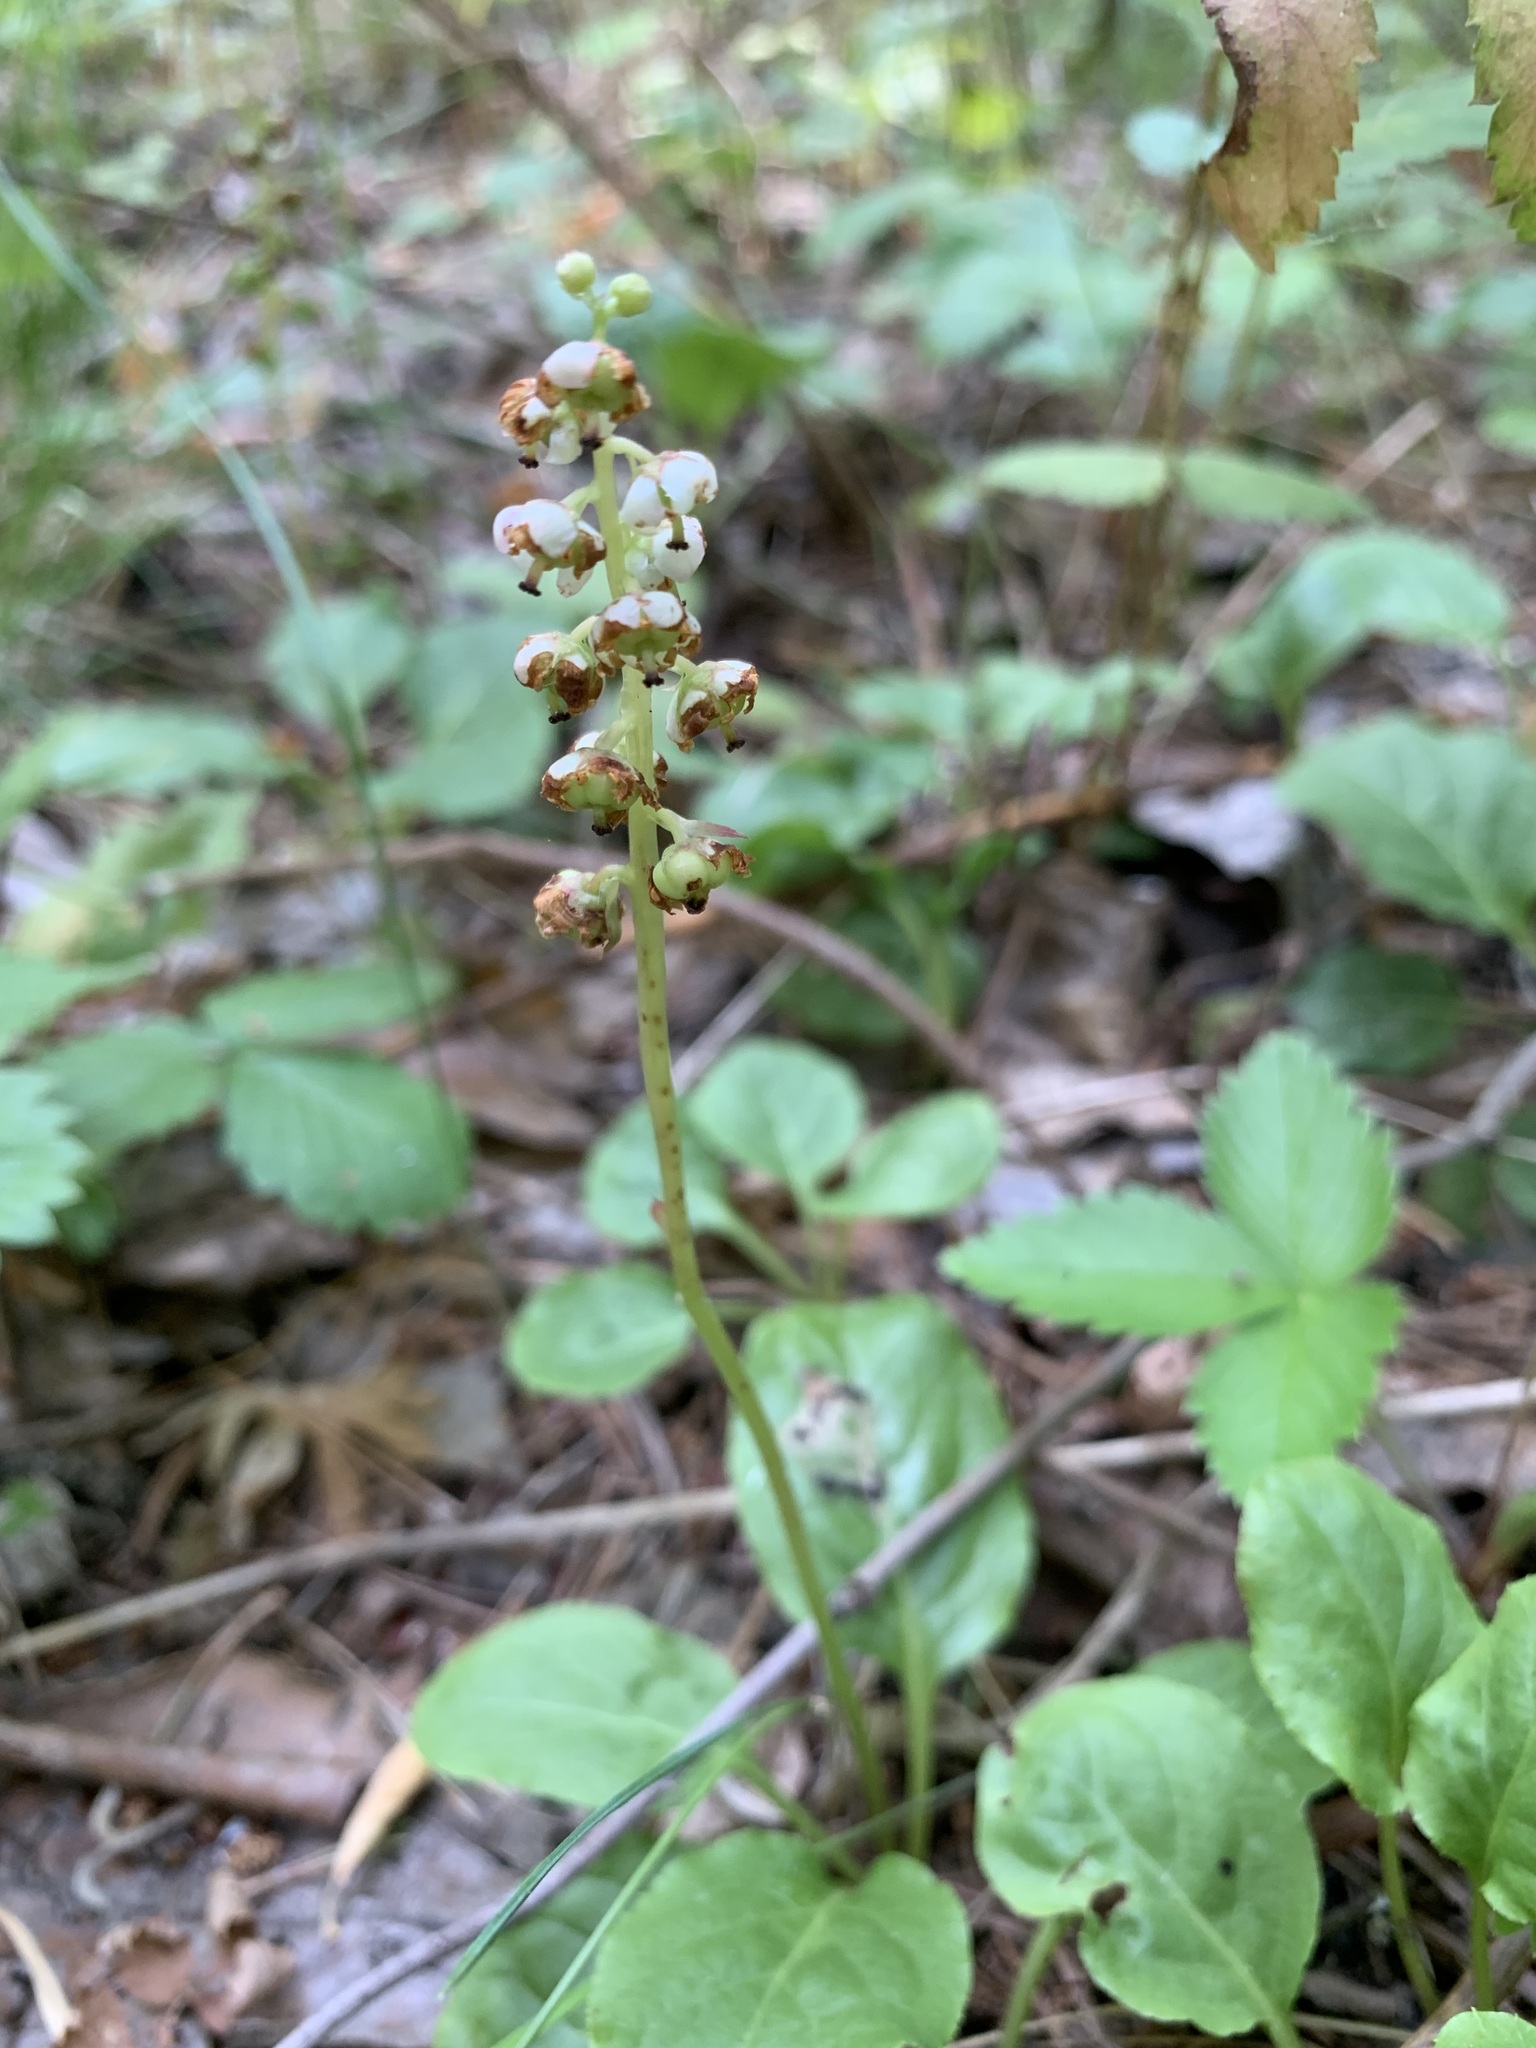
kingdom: Plantae
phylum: Tracheophyta
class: Magnoliopsida
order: Ericales
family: Ericaceae
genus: Pyrola
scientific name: Pyrola minor
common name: Common wintergreen
